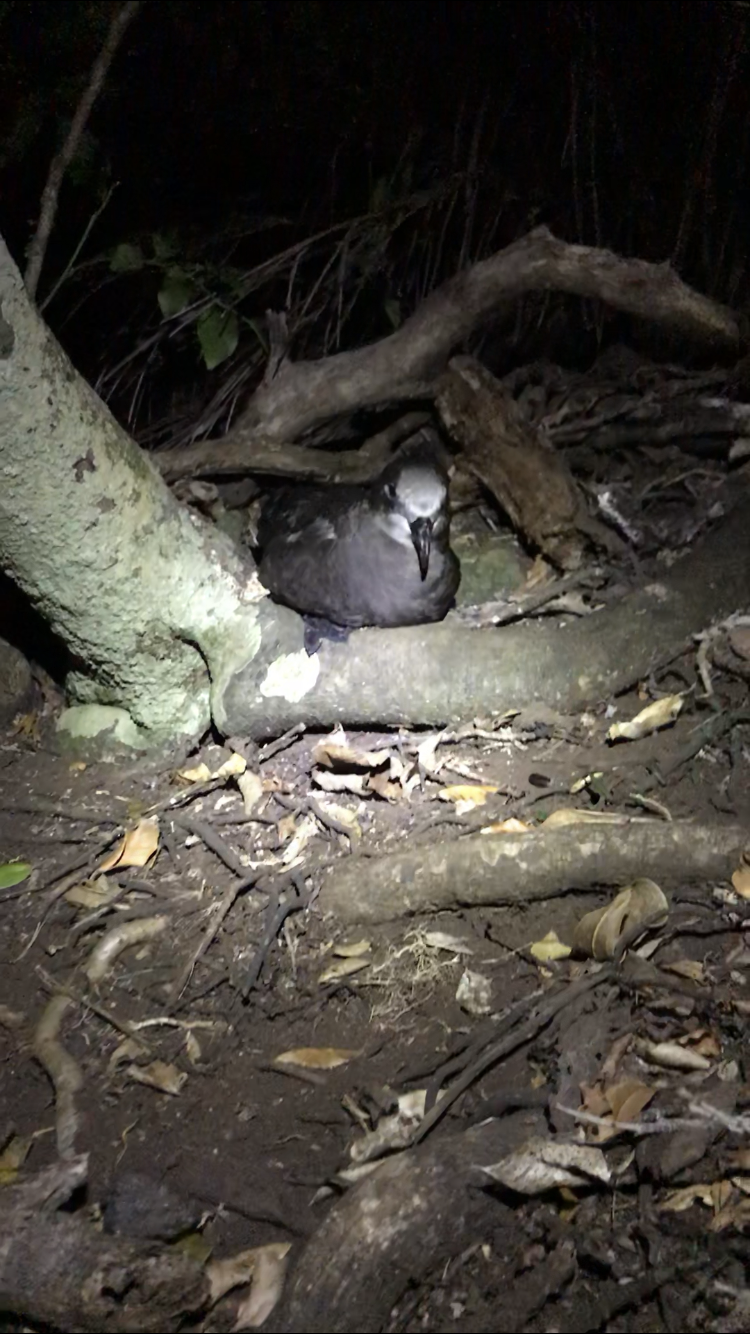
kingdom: Animalia
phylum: Chordata
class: Aves
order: Procellariiformes
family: Procellariidae
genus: Pterodroma
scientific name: Pterodroma macroptera
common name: Great-winged petrel
